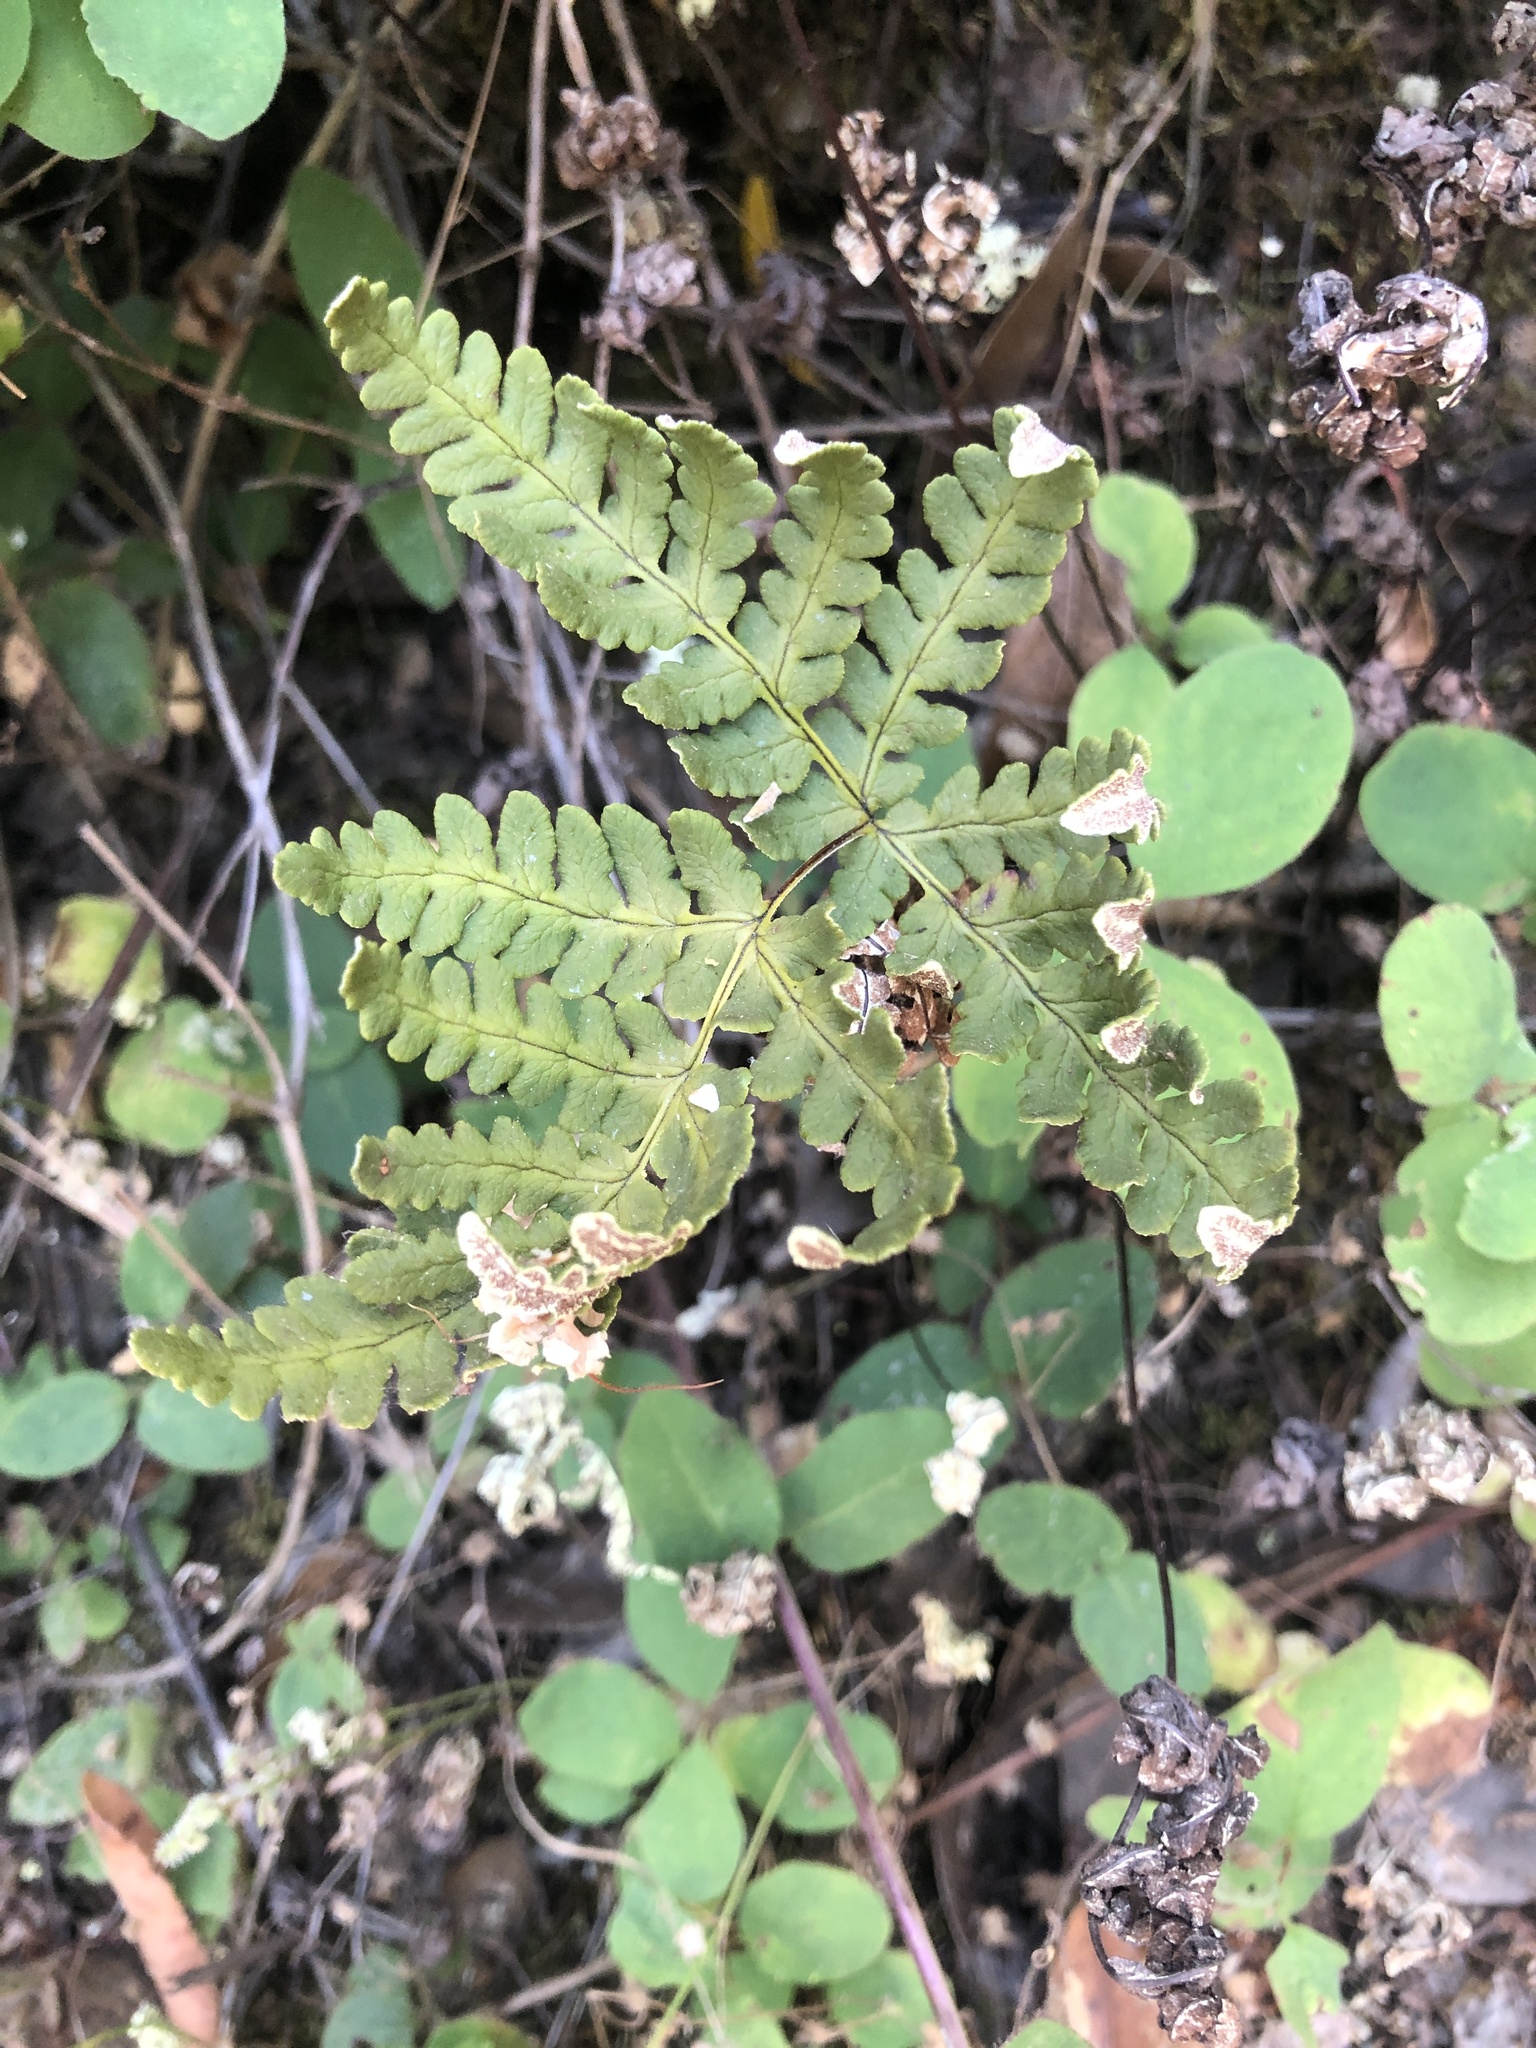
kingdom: Plantae
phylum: Tracheophyta
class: Polypodiopsida
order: Polypodiales
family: Pteridaceae
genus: Pentagramma
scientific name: Pentagramma triangularis
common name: Gold fern
